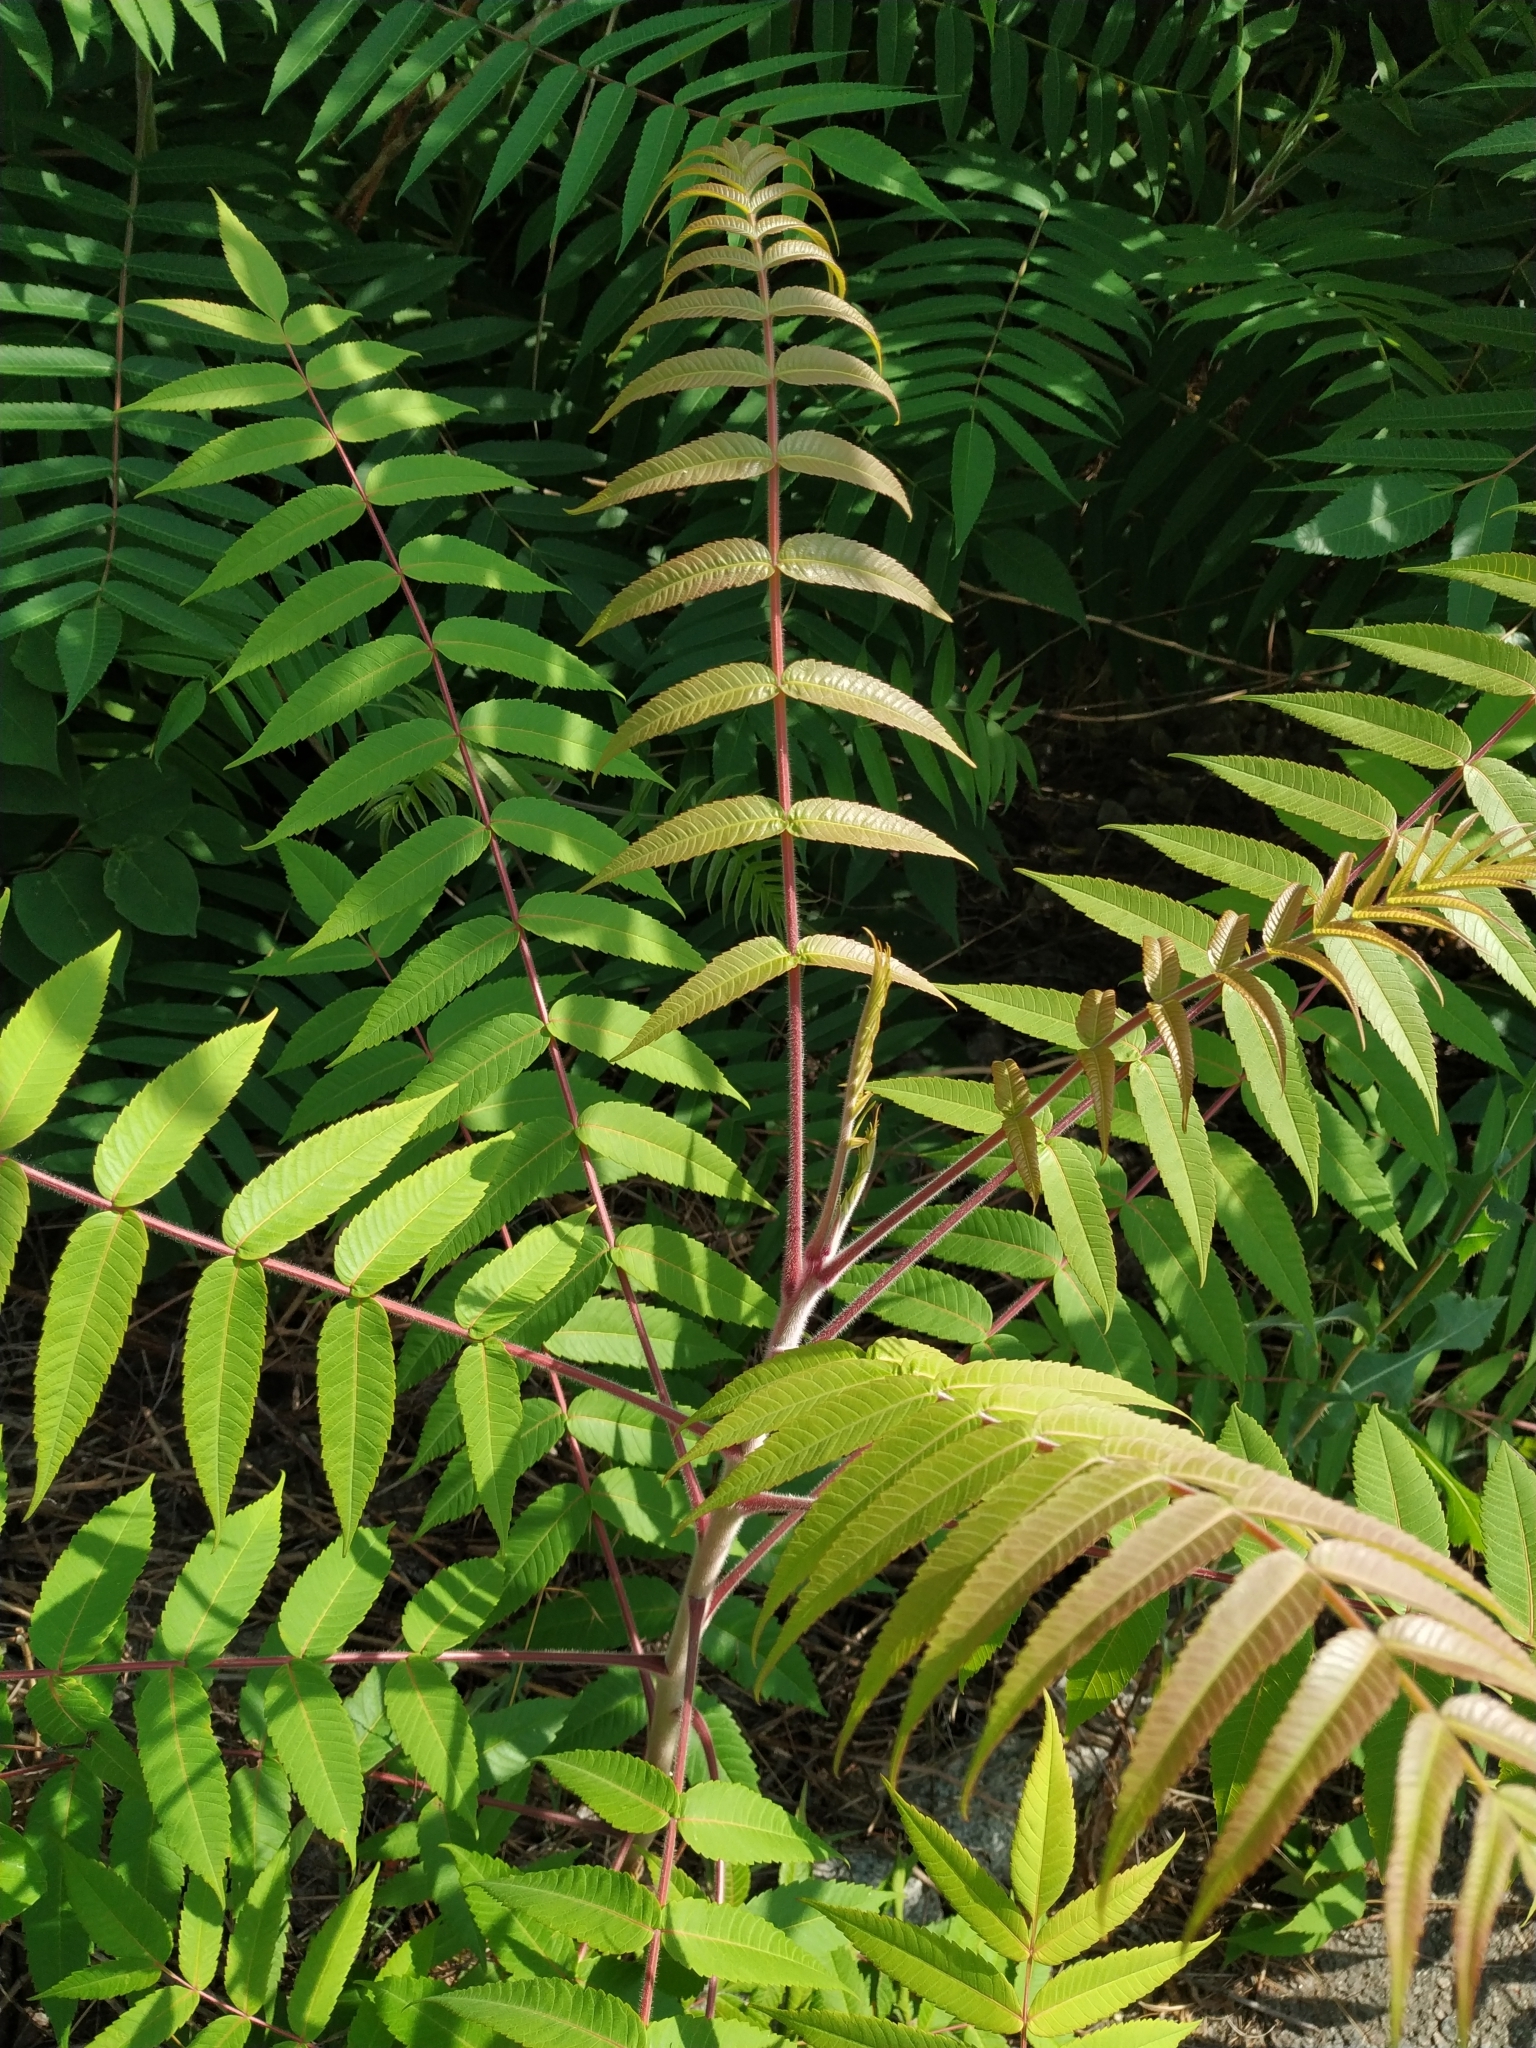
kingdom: Plantae
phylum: Tracheophyta
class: Magnoliopsida
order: Sapindales
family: Anacardiaceae
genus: Rhus
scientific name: Rhus typhina
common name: Staghorn sumac
